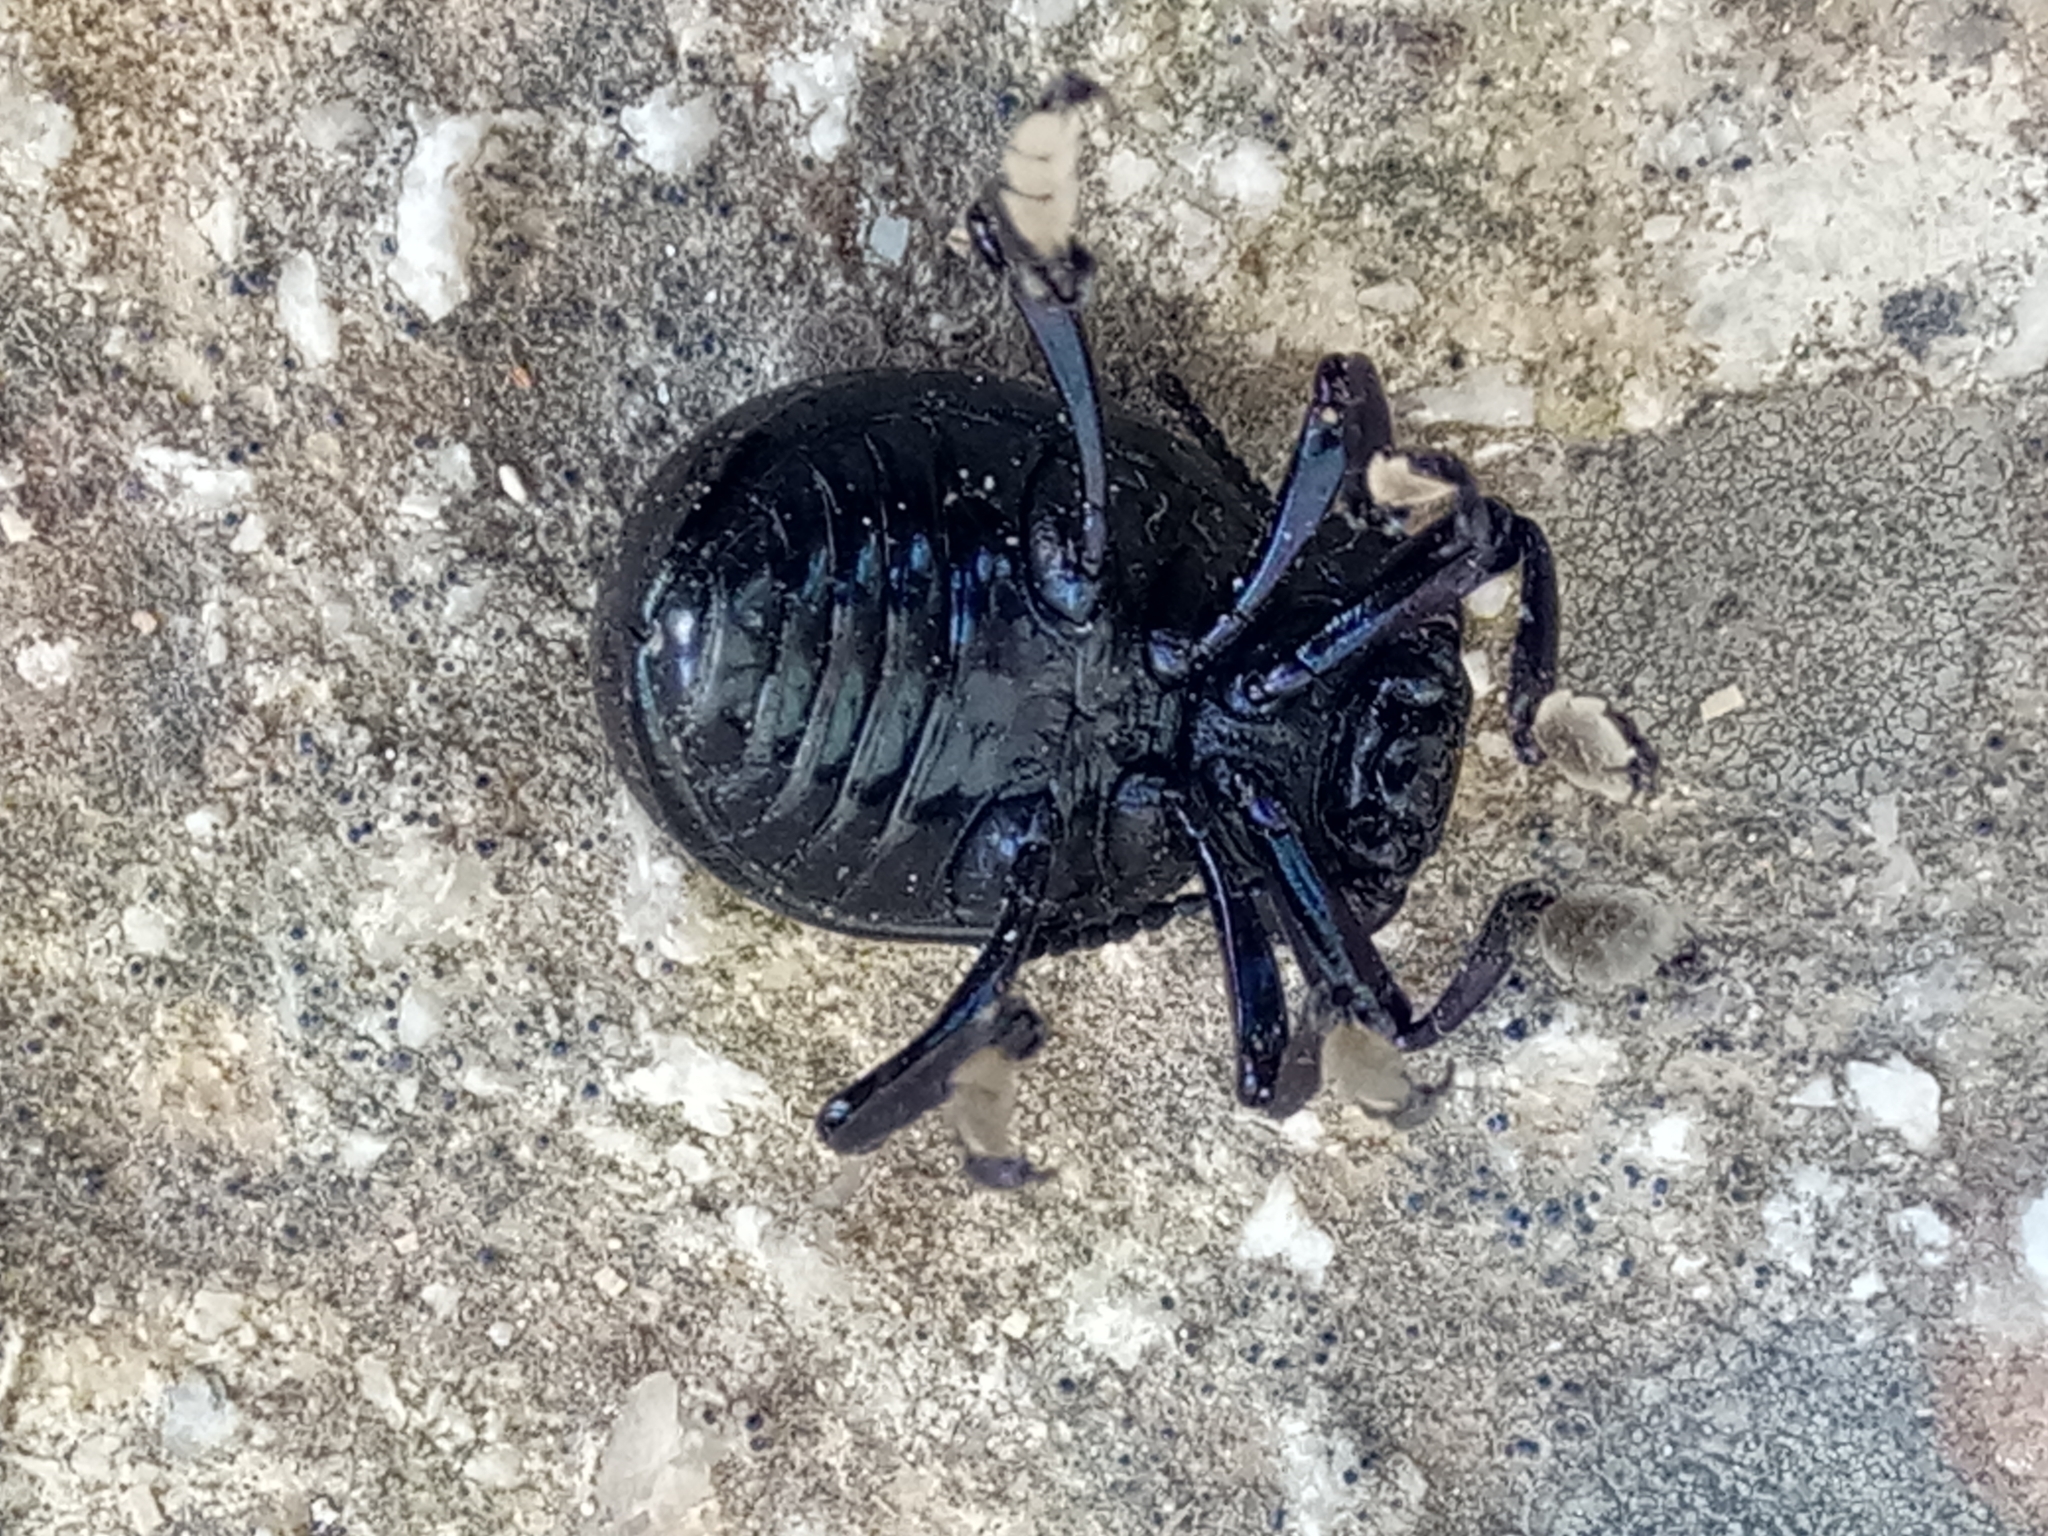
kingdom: Animalia
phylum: Arthropoda
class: Insecta
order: Coleoptera
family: Chrysomelidae
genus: Timarcha
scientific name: Timarcha
